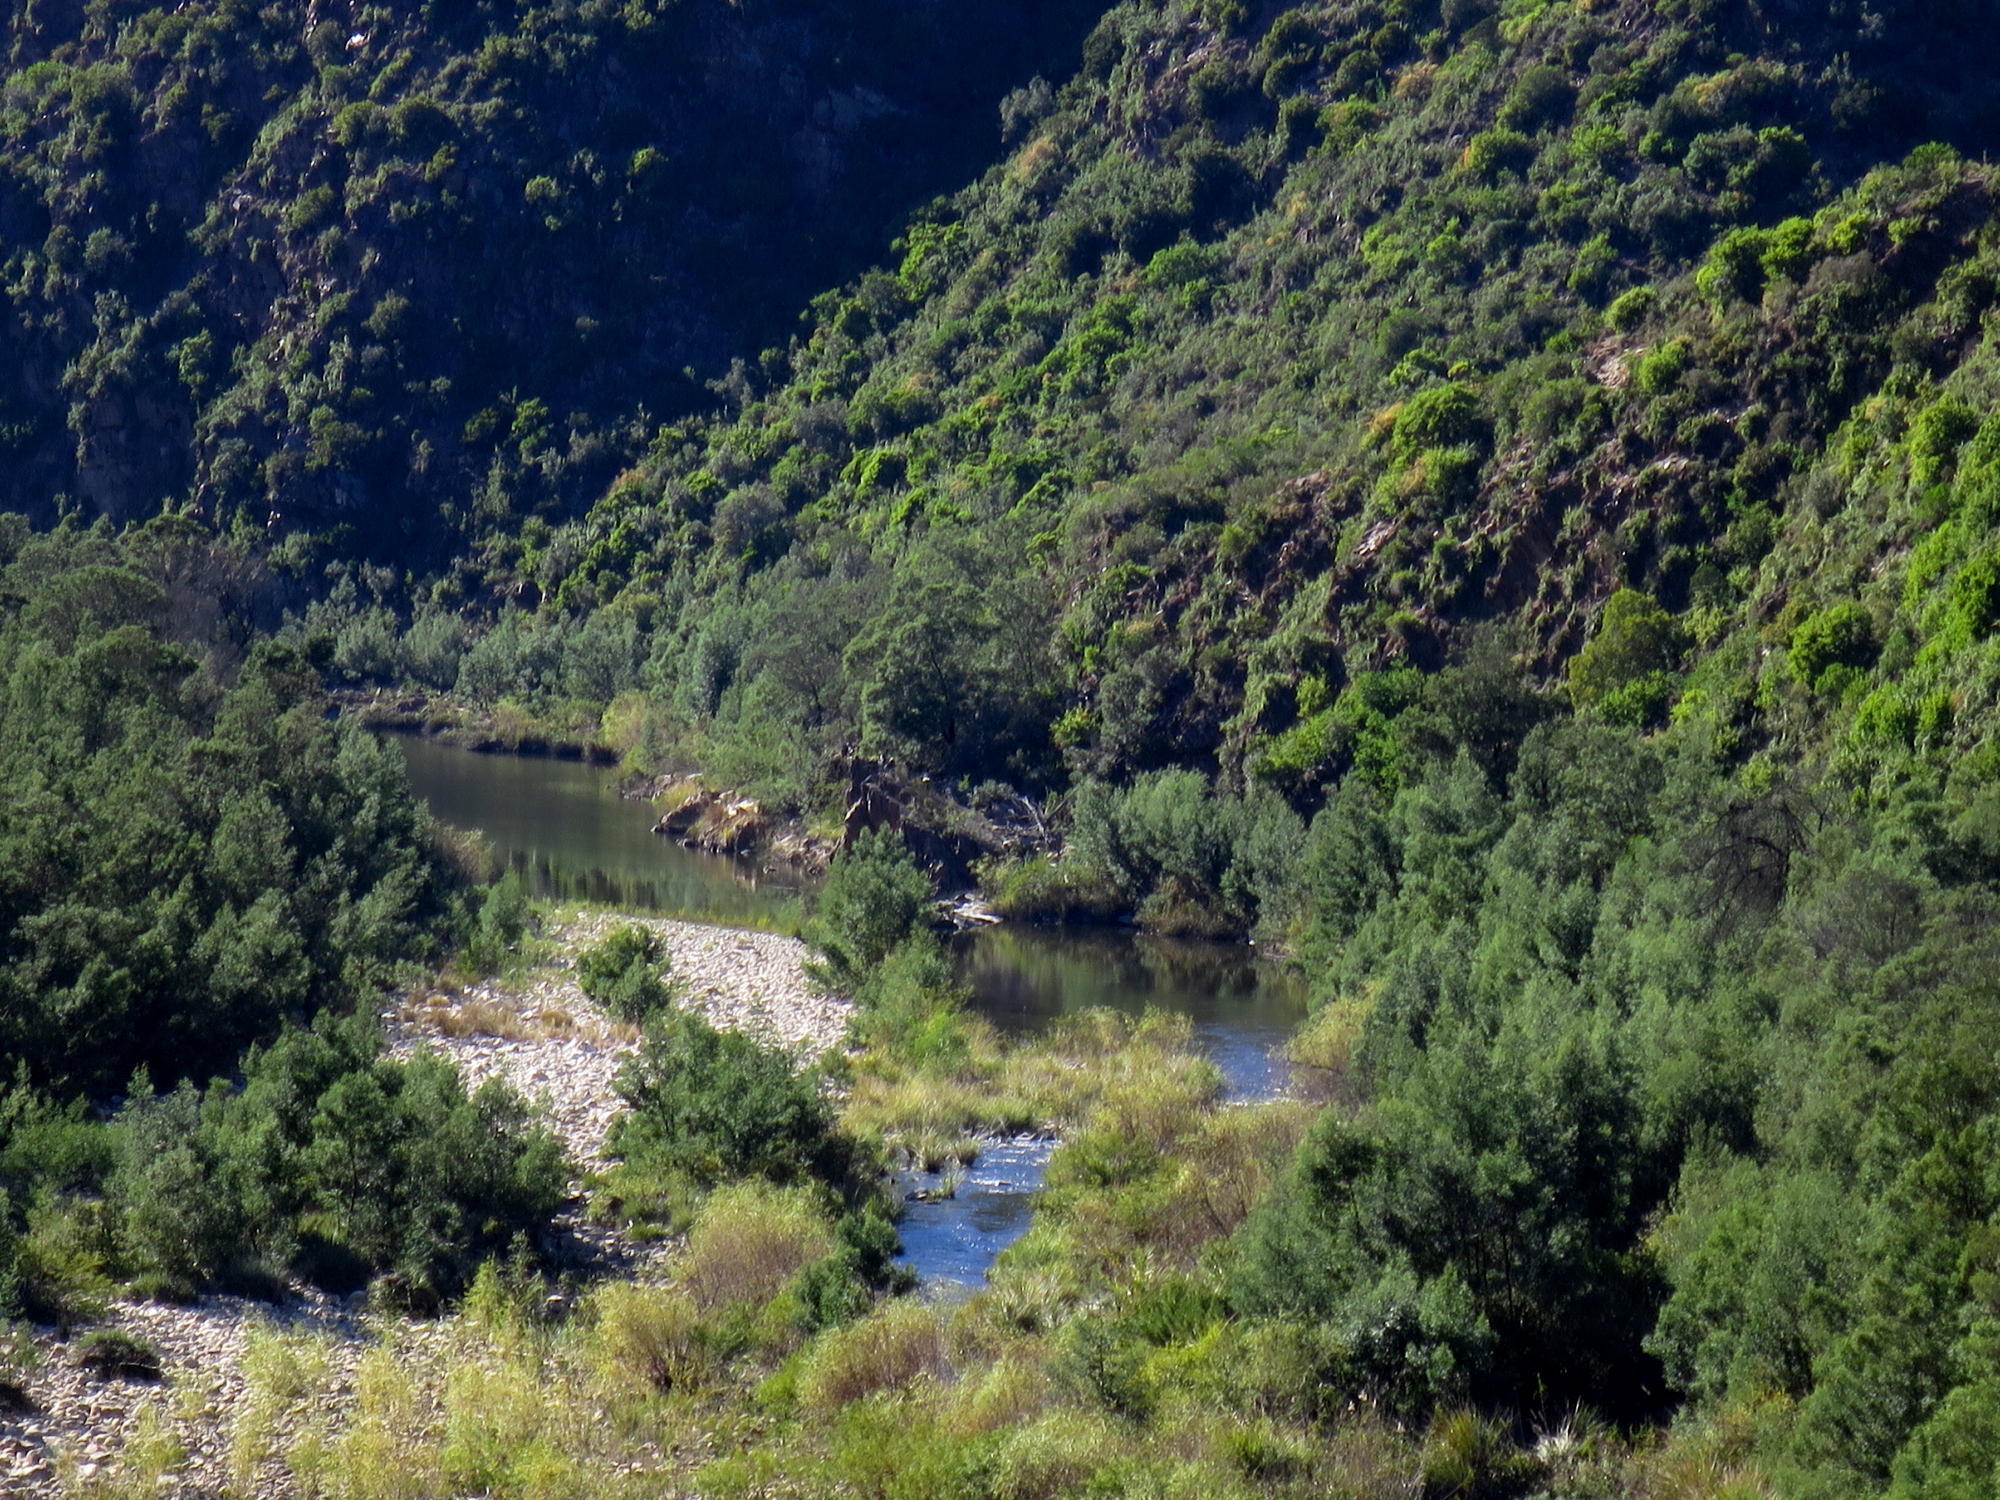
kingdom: Plantae
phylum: Tracheophyta
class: Magnoliopsida
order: Fabales
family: Fabaceae
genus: Acacia
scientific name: Acacia mearnsii
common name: Black wattle
